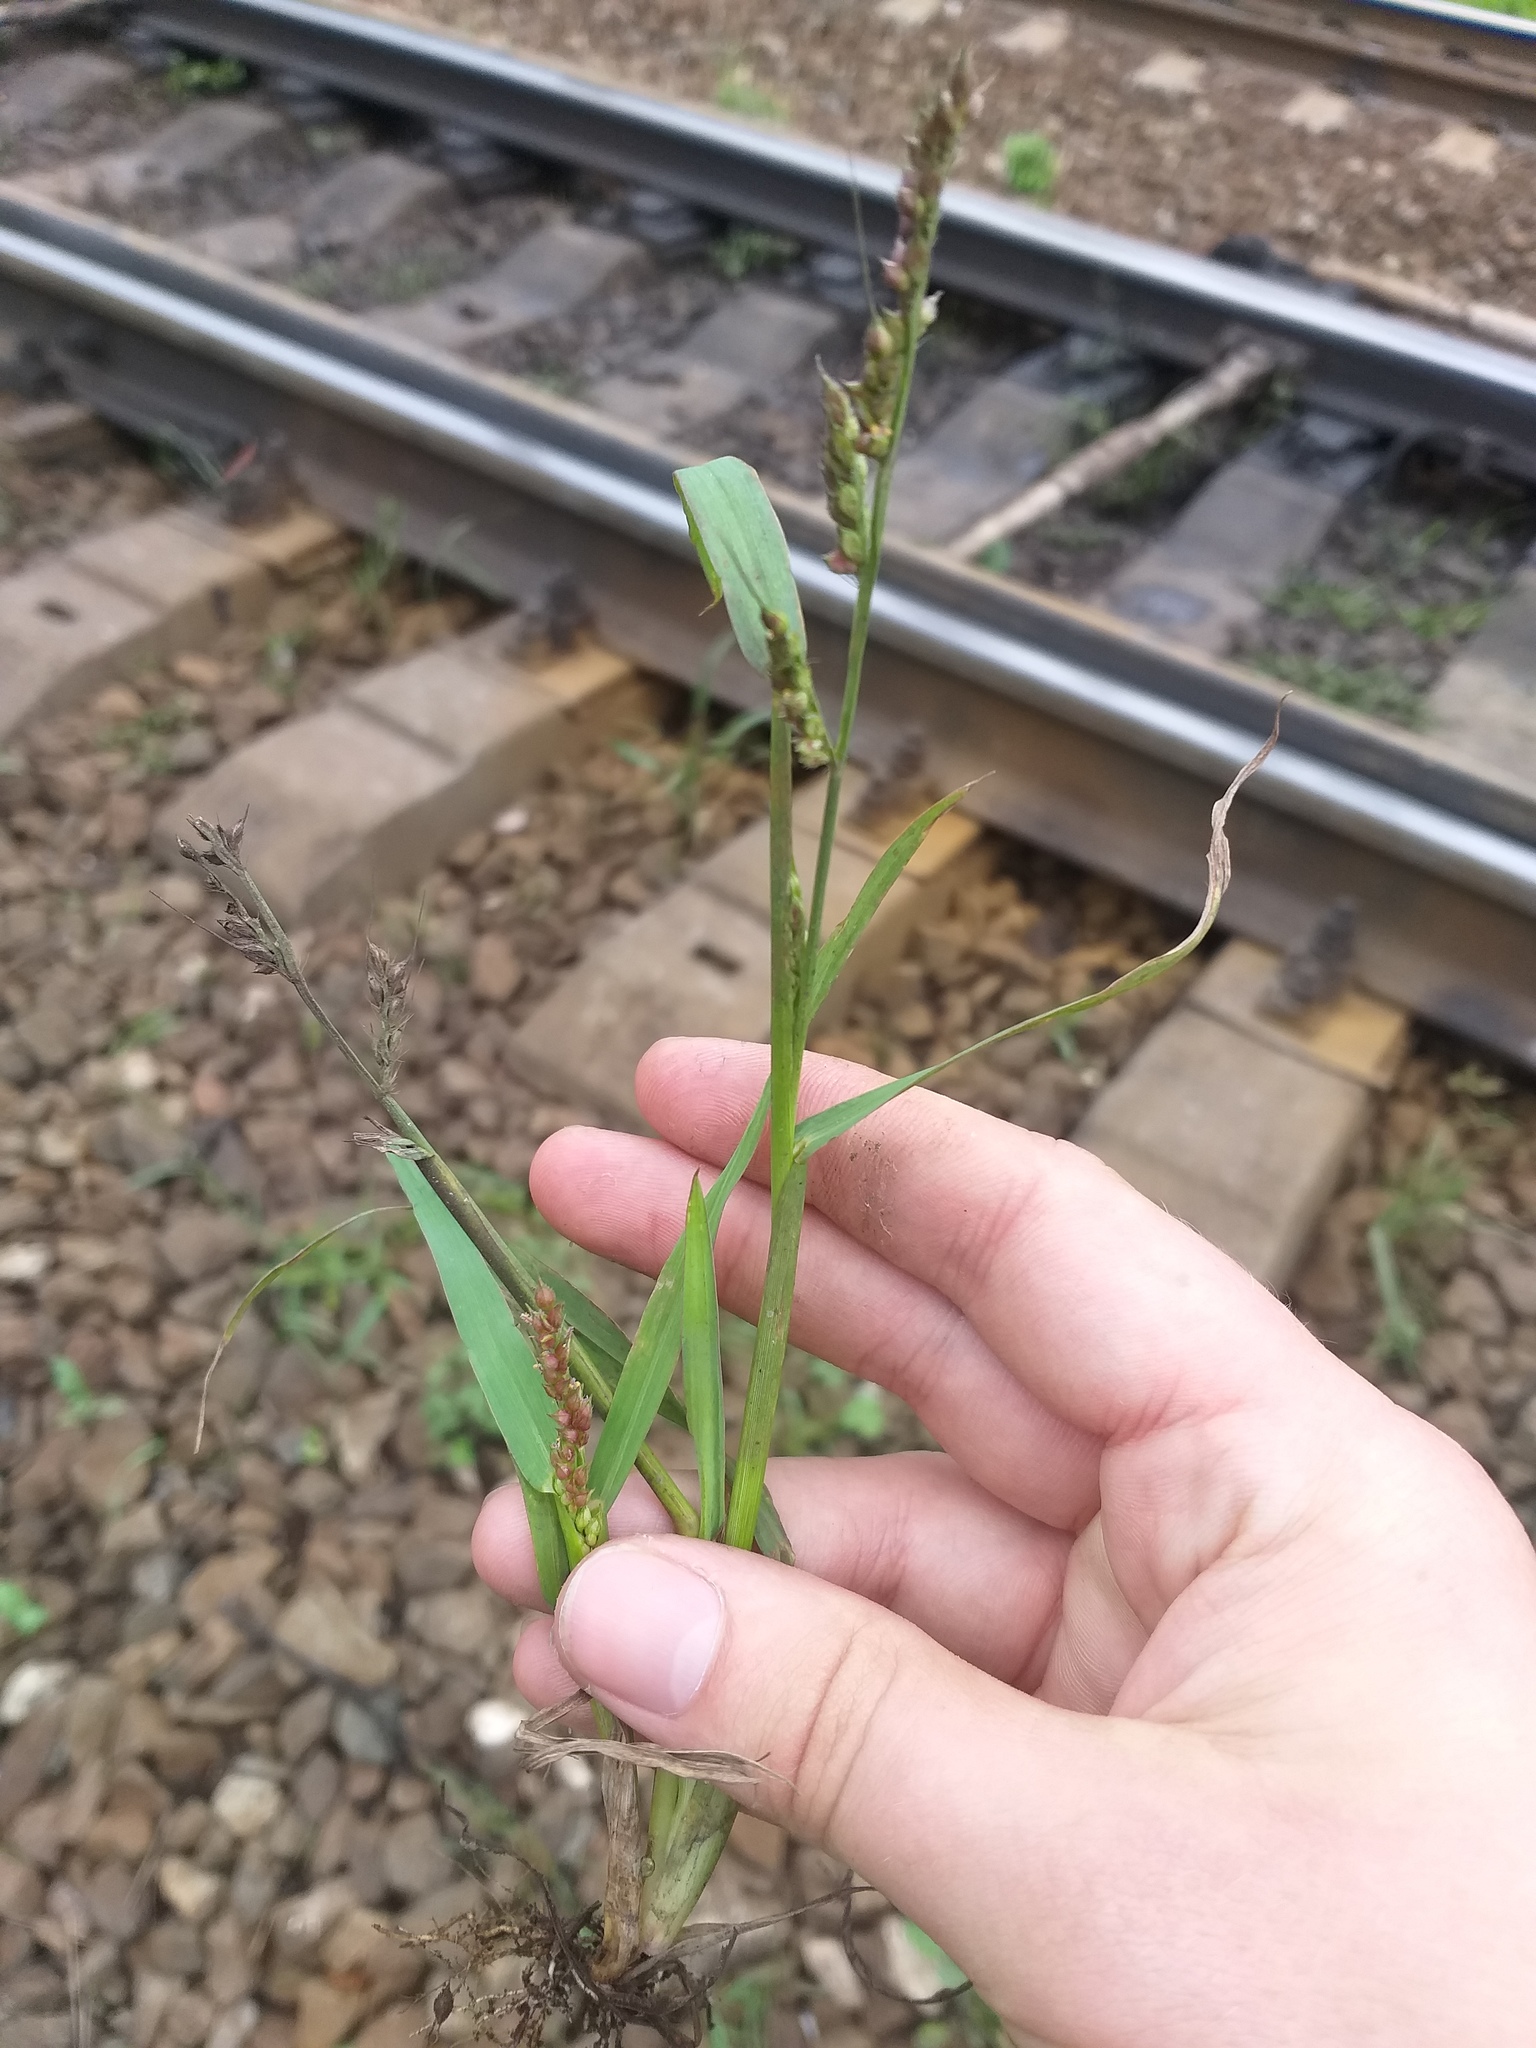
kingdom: Plantae
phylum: Tracheophyta
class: Liliopsida
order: Poales
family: Poaceae
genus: Echinochloa
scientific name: Echinochloa crus-galli
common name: Cockspur
